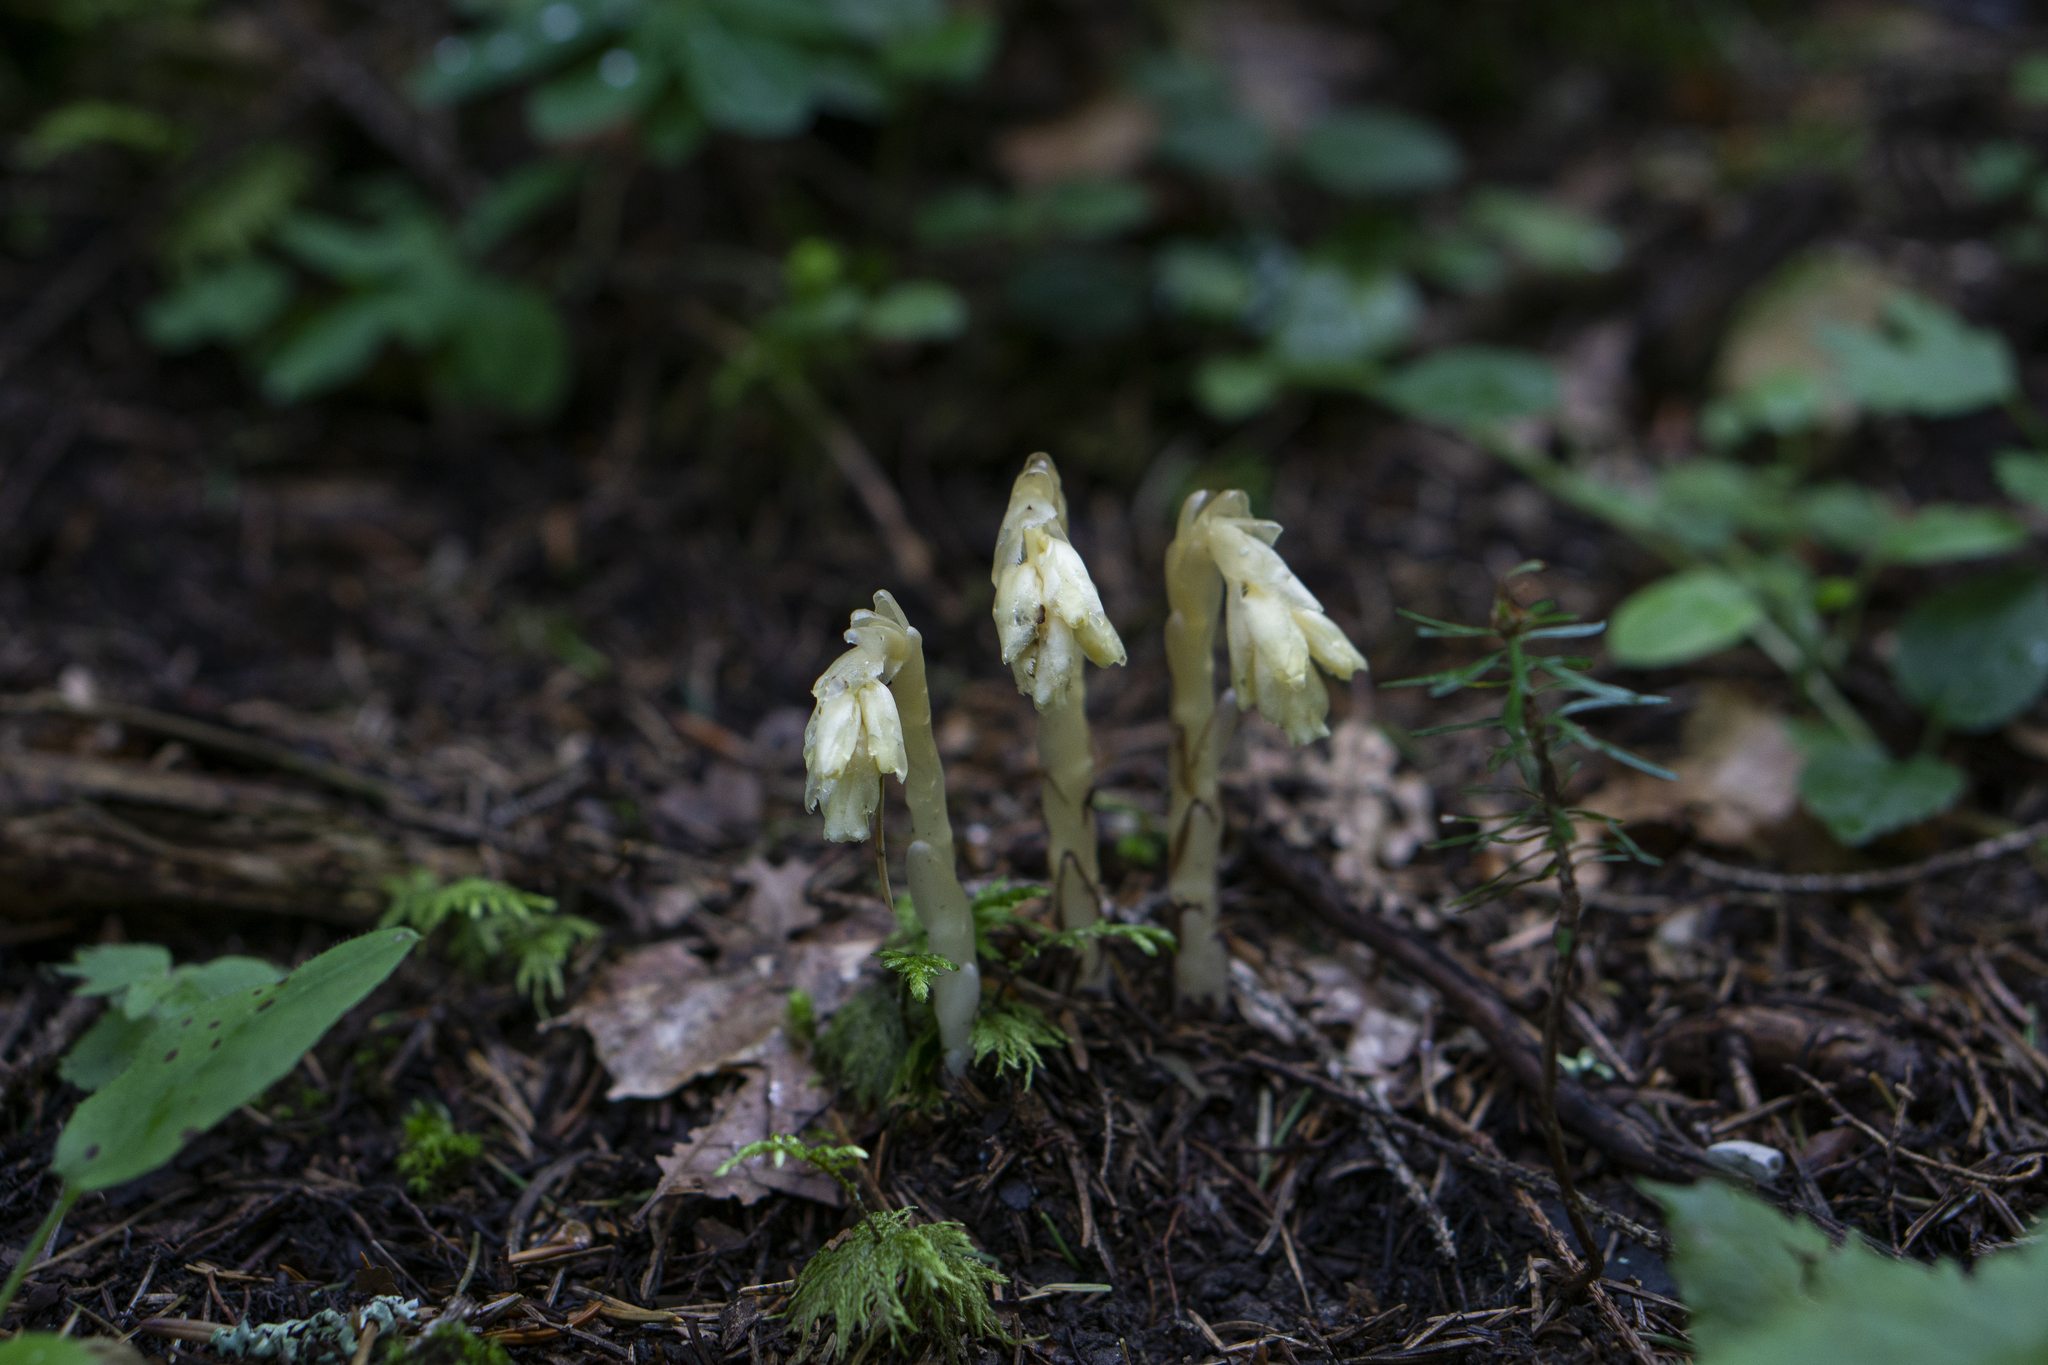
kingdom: Plantae
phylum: Tracheophyta
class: Magnoliopsida
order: Ericales
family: Ericaceae
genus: Hypopitys
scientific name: Hypopitys monotropa
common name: Yellow bird's-nest
